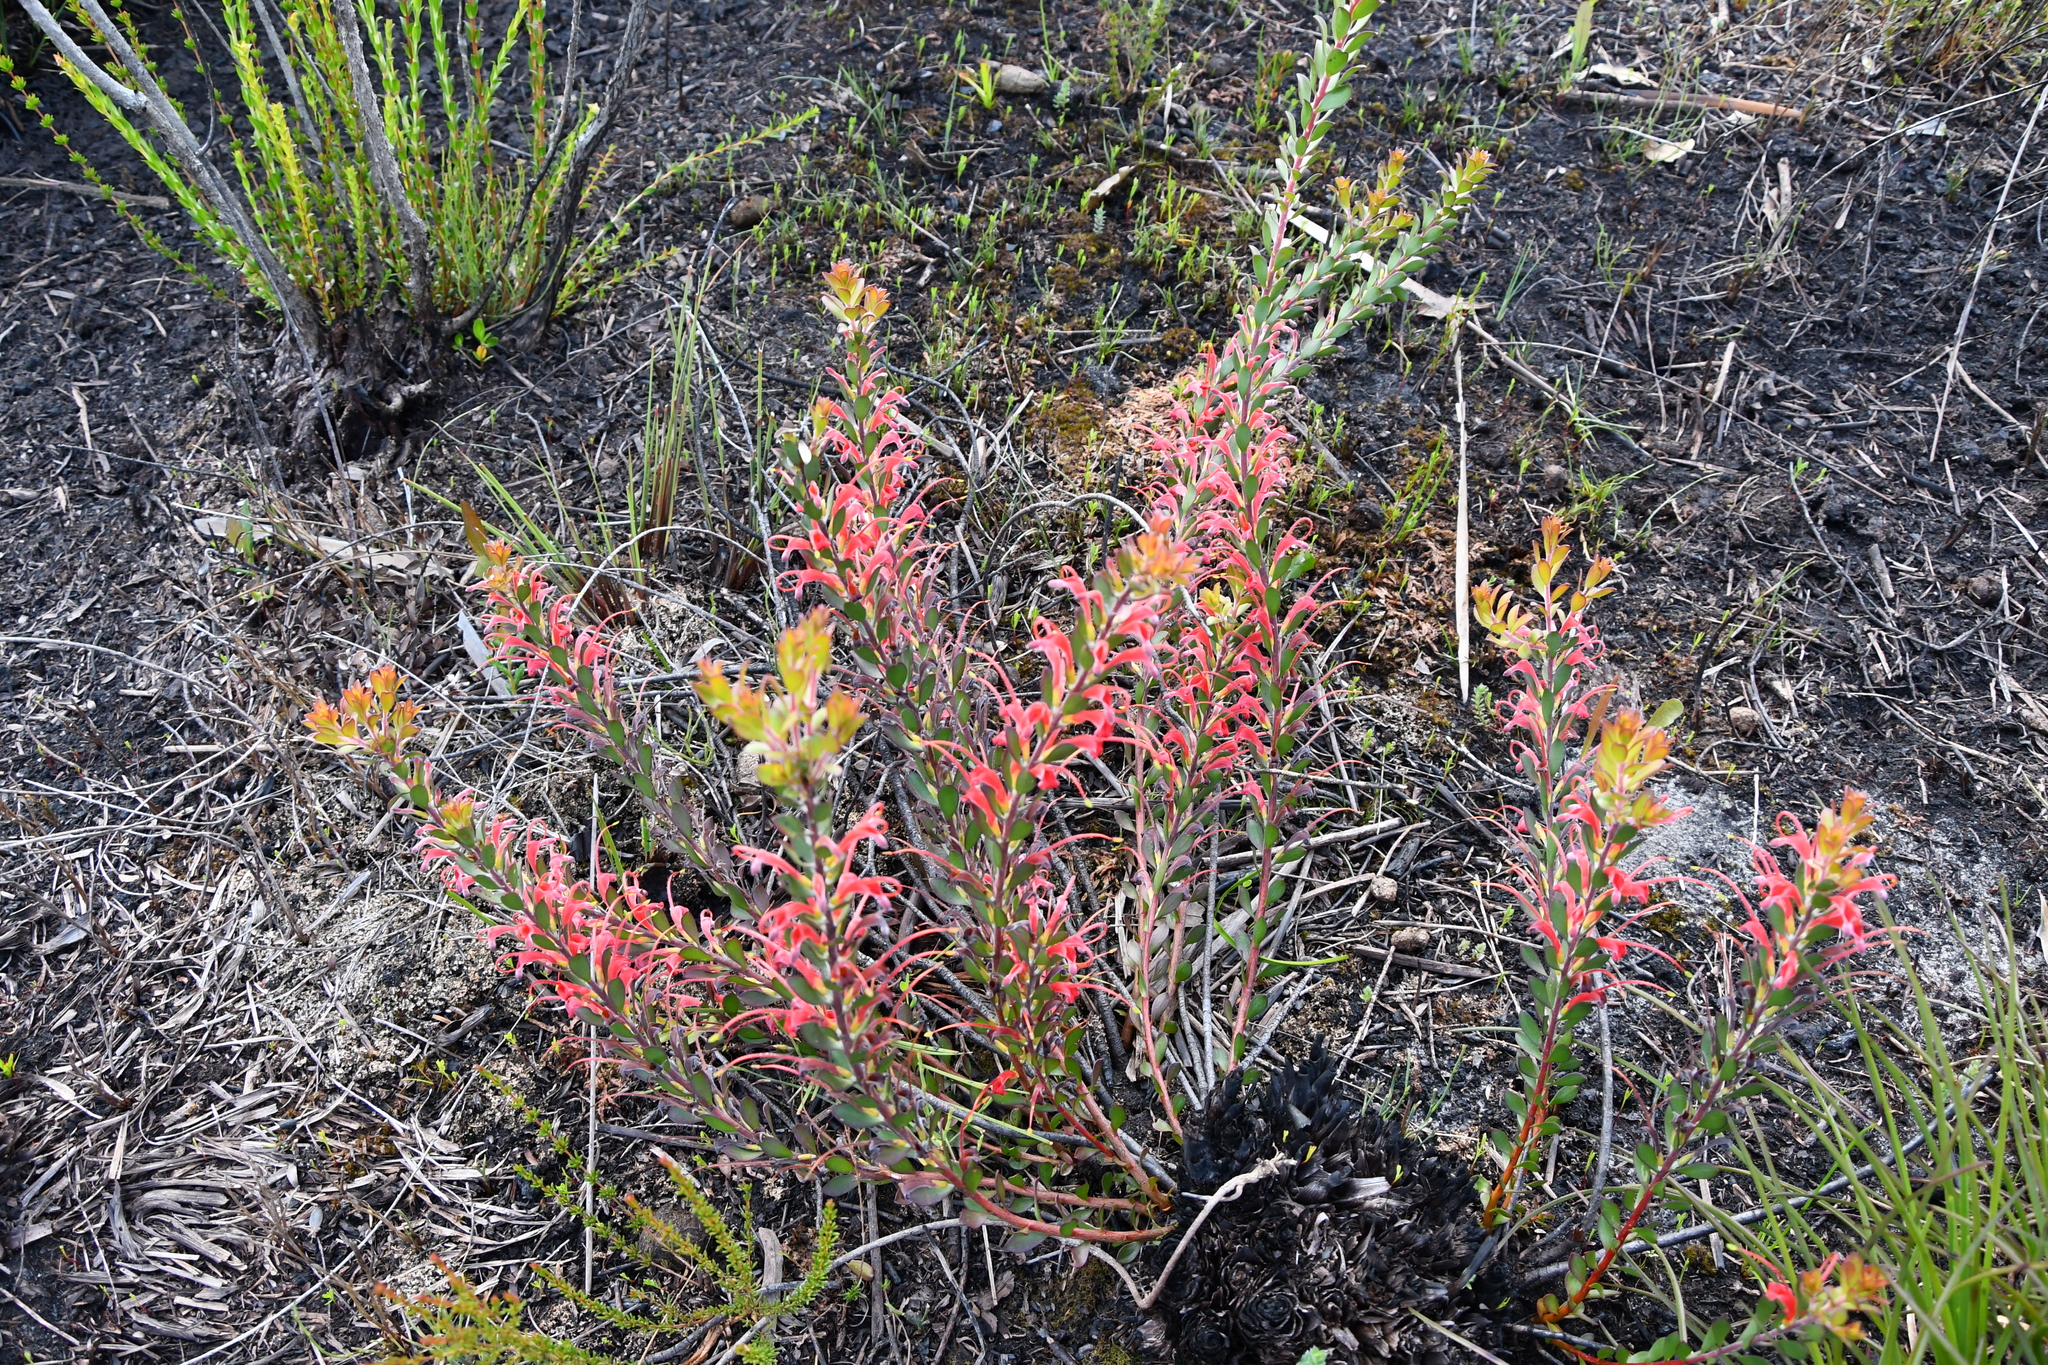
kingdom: Plantae
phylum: Tracheophyta
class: Magnoliopsida
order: Proteales
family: Proteaceae
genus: Adenanthos
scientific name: Adenanthos obovatus
